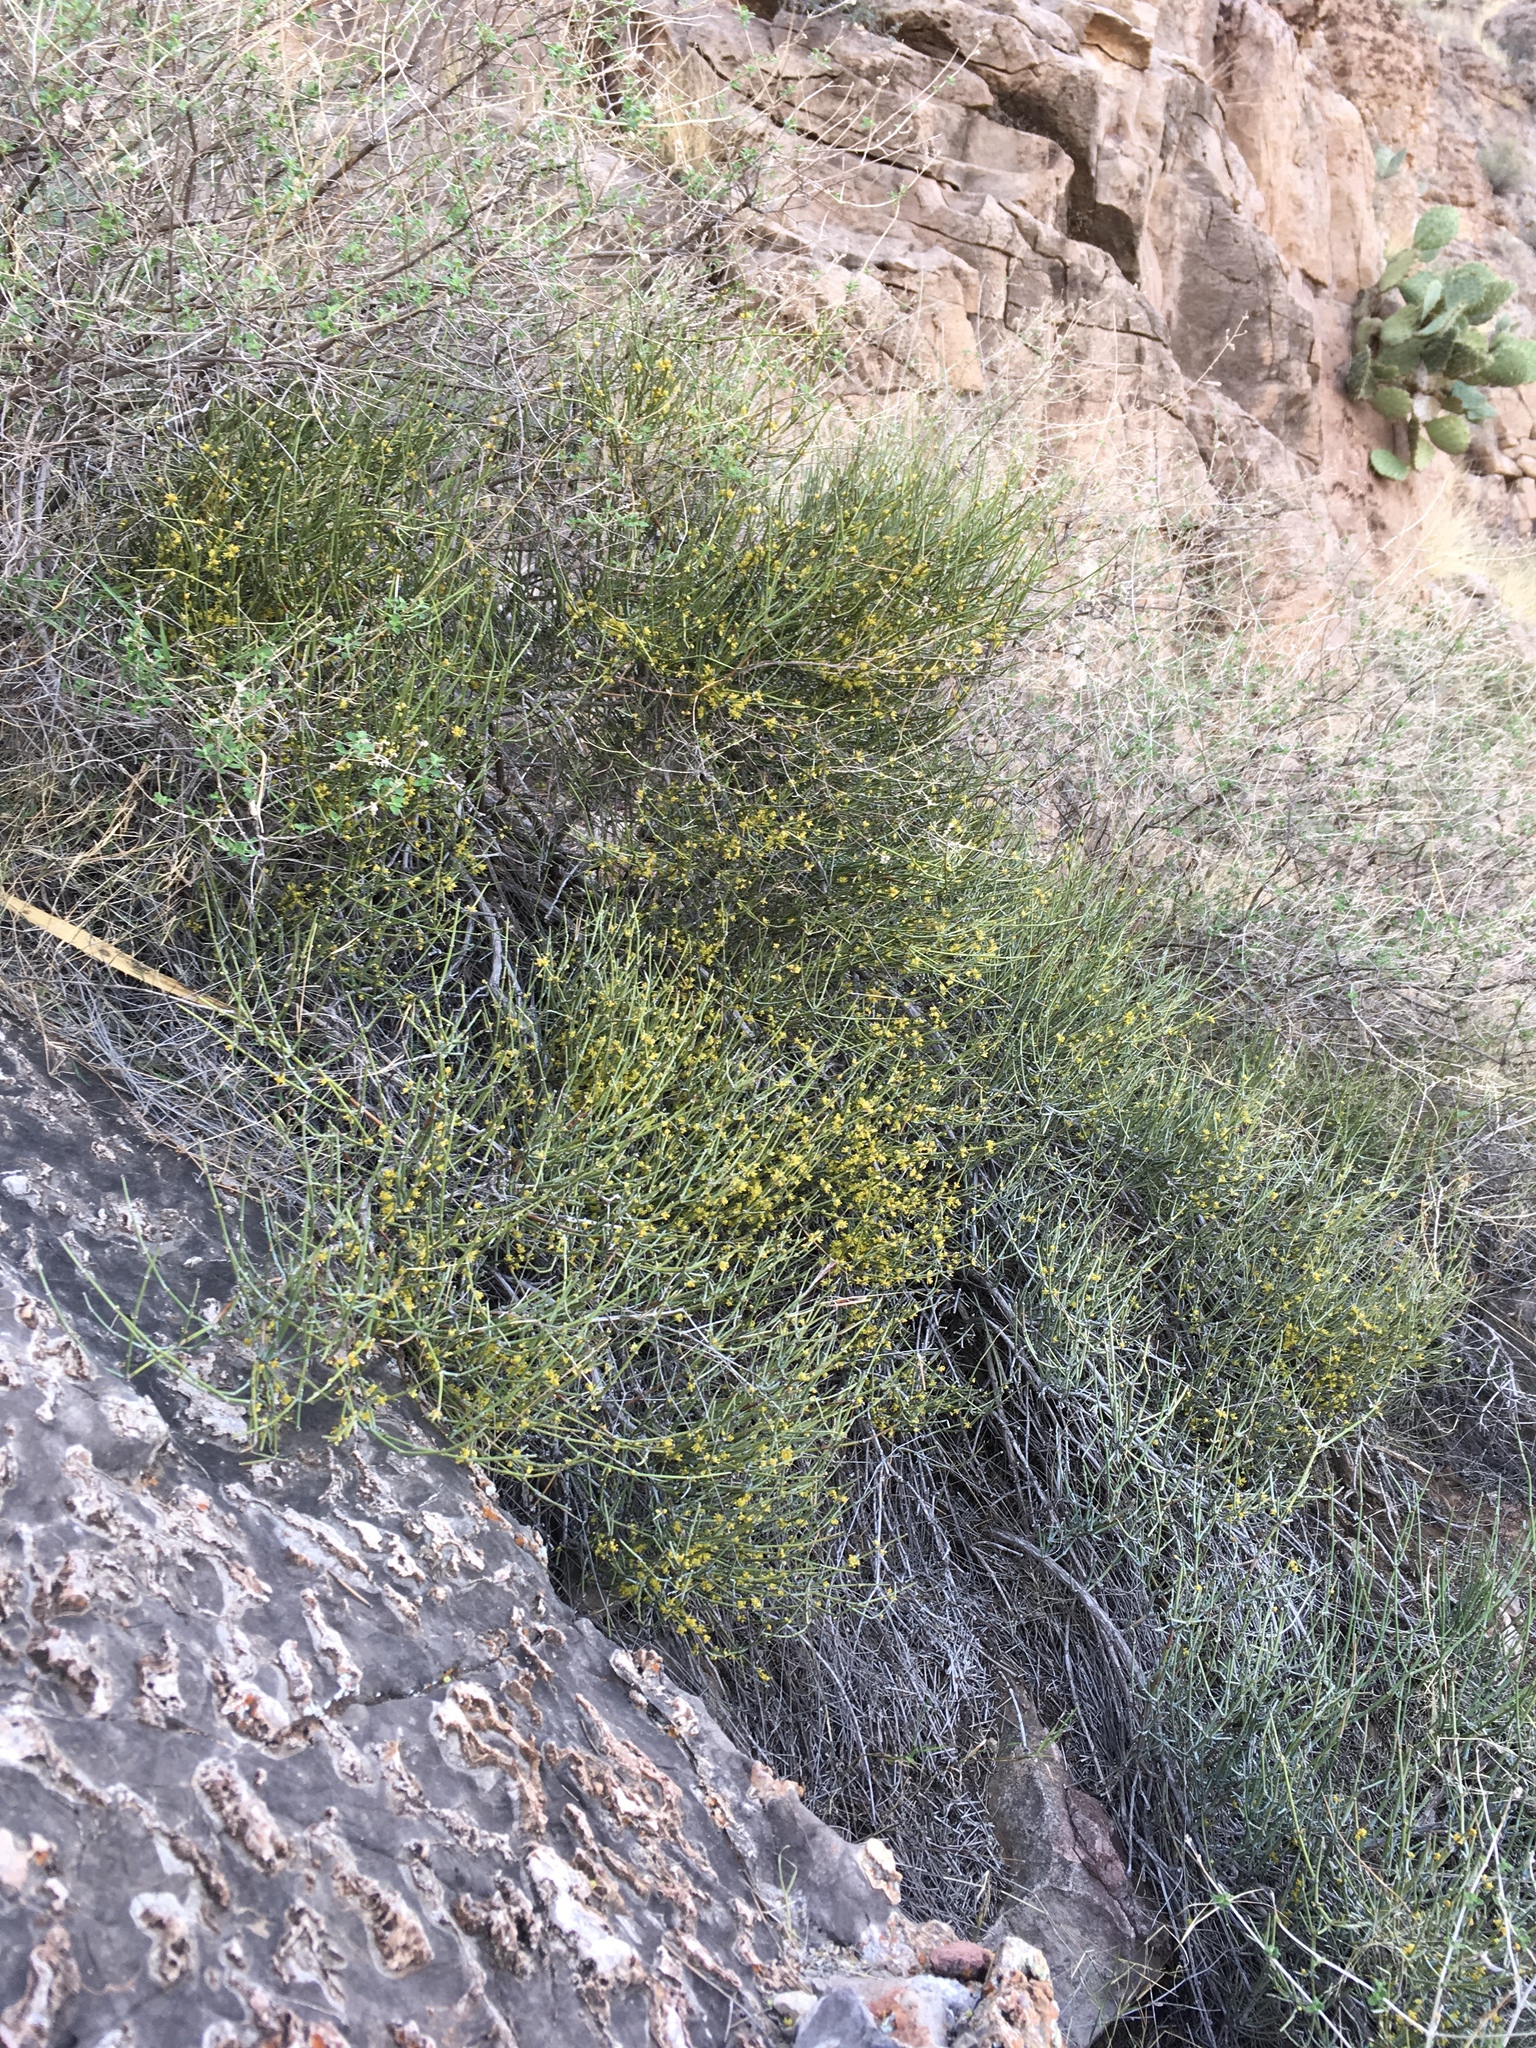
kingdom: Plantae
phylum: Tracheophyta
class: Gnetopsida
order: Ephedrales
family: Ephedraceae
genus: Ephedra
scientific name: Ephedra aspera
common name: Boundary ephedra
